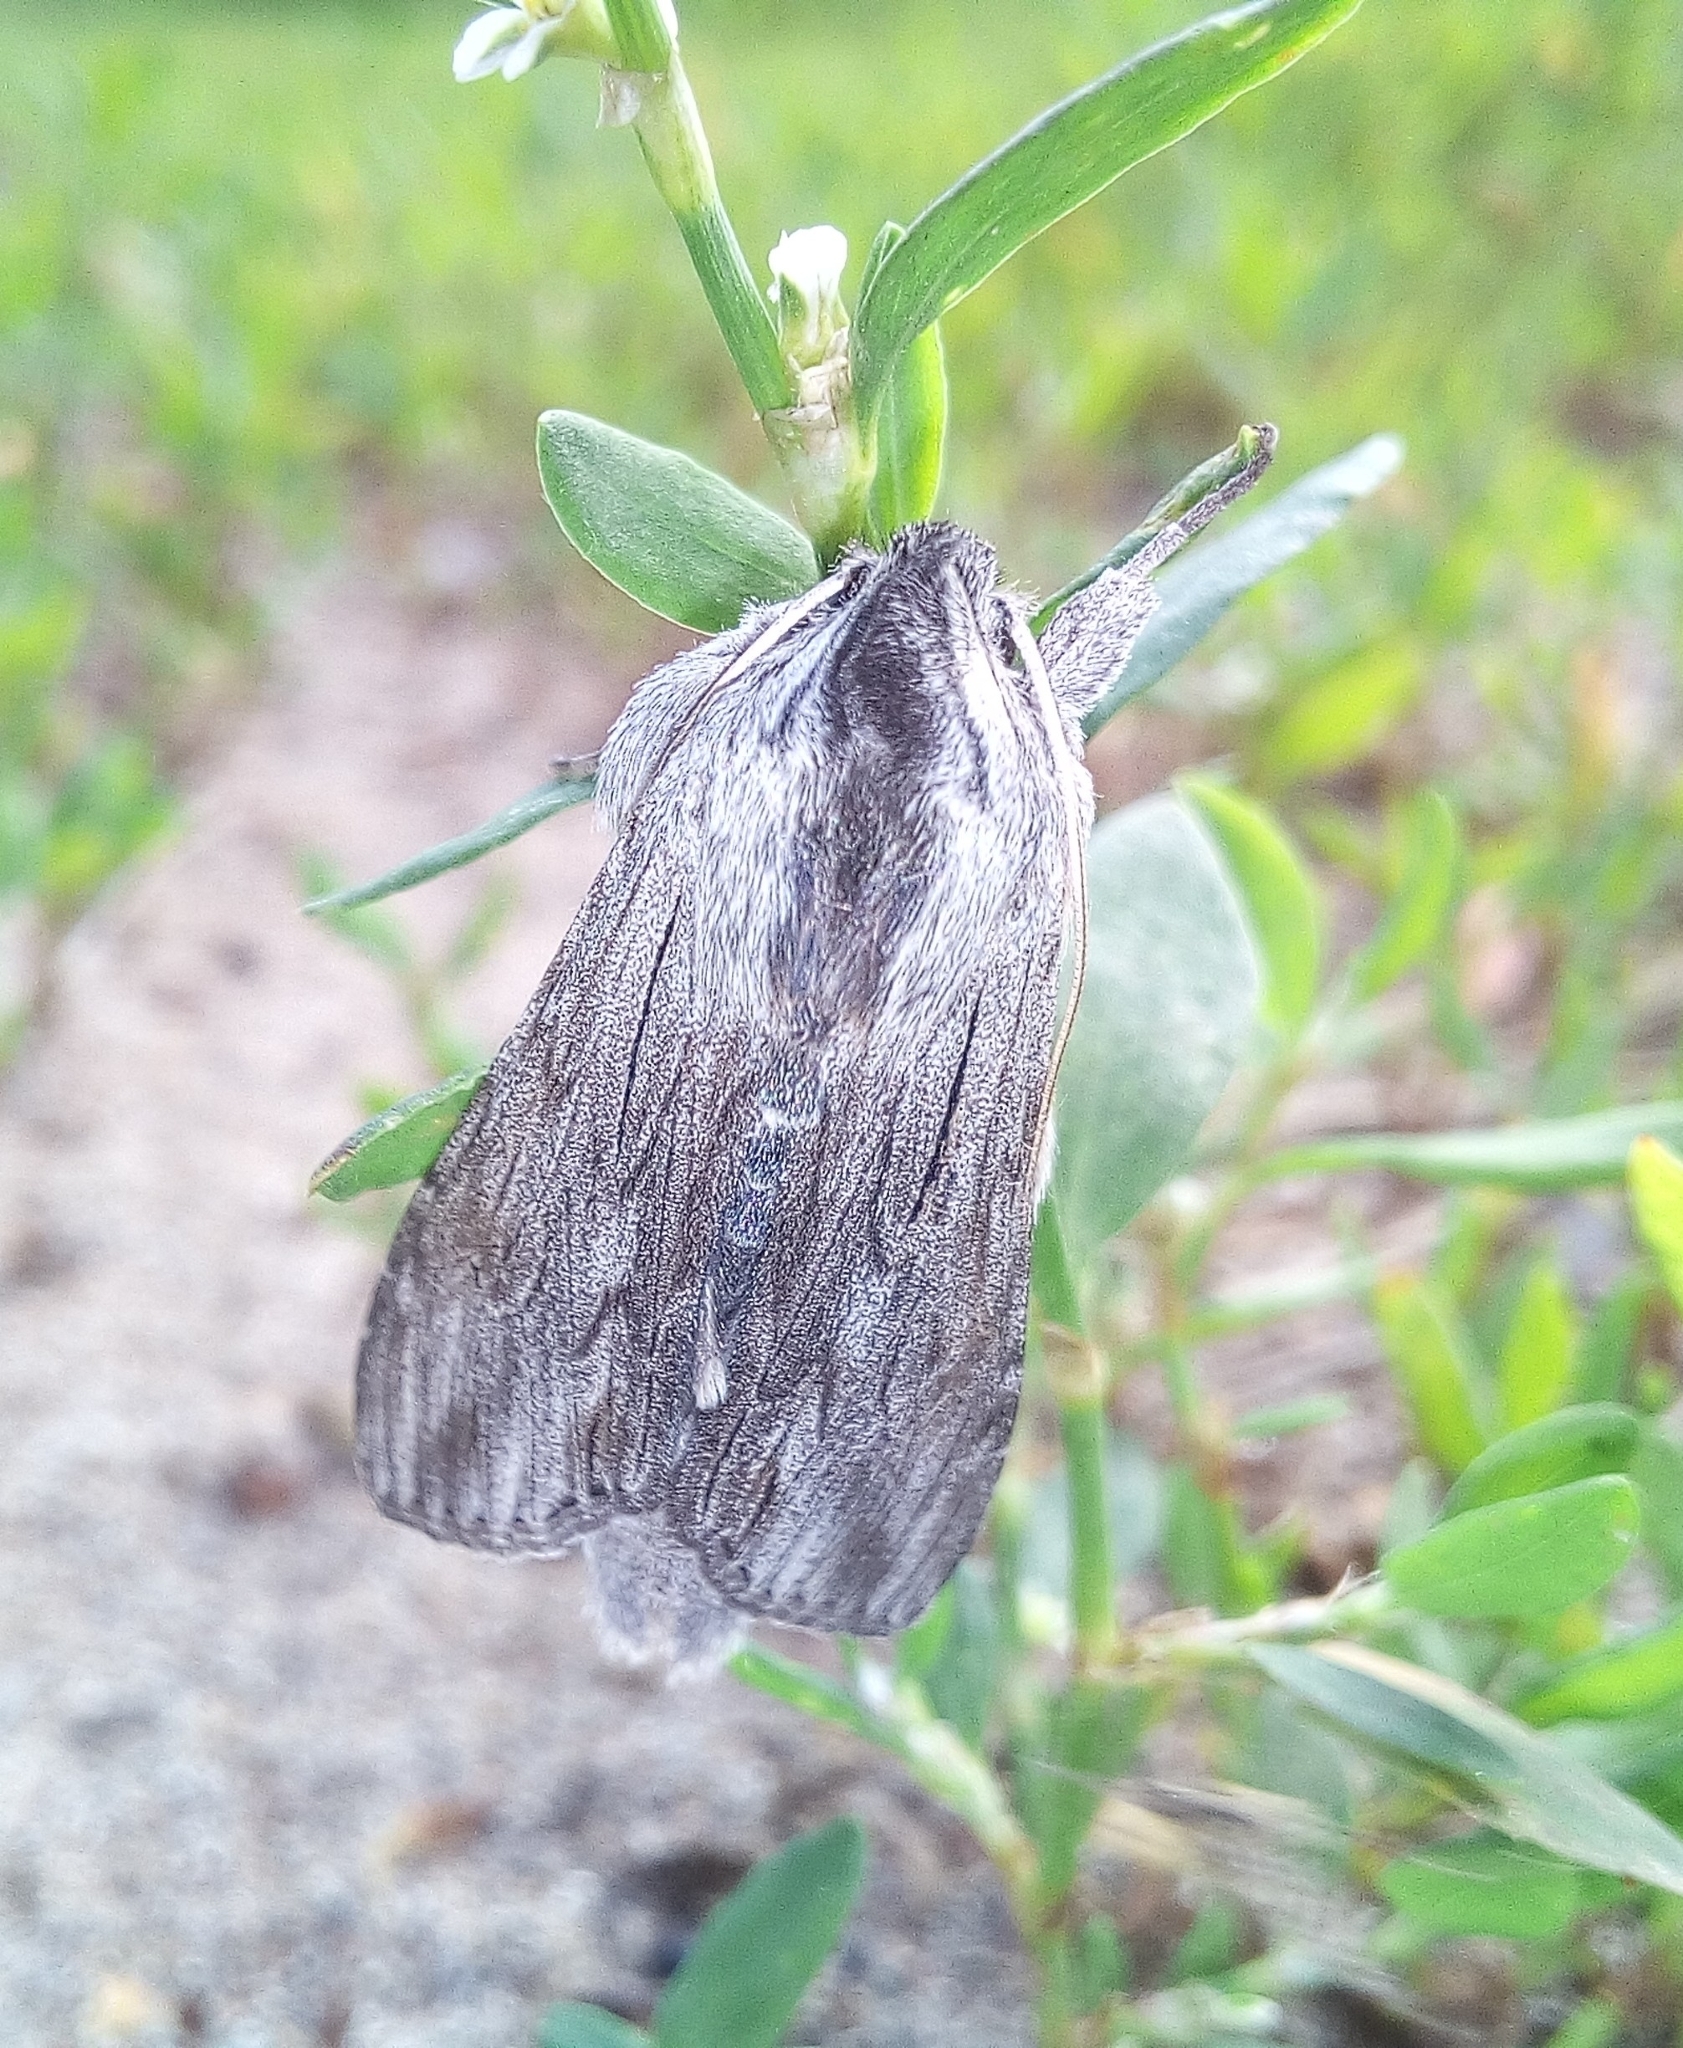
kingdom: Animalia
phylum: Arthropoda
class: Insecta
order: Lepidoptera
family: Noctuidae
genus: Cucullia
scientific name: Cucullia pustulata
